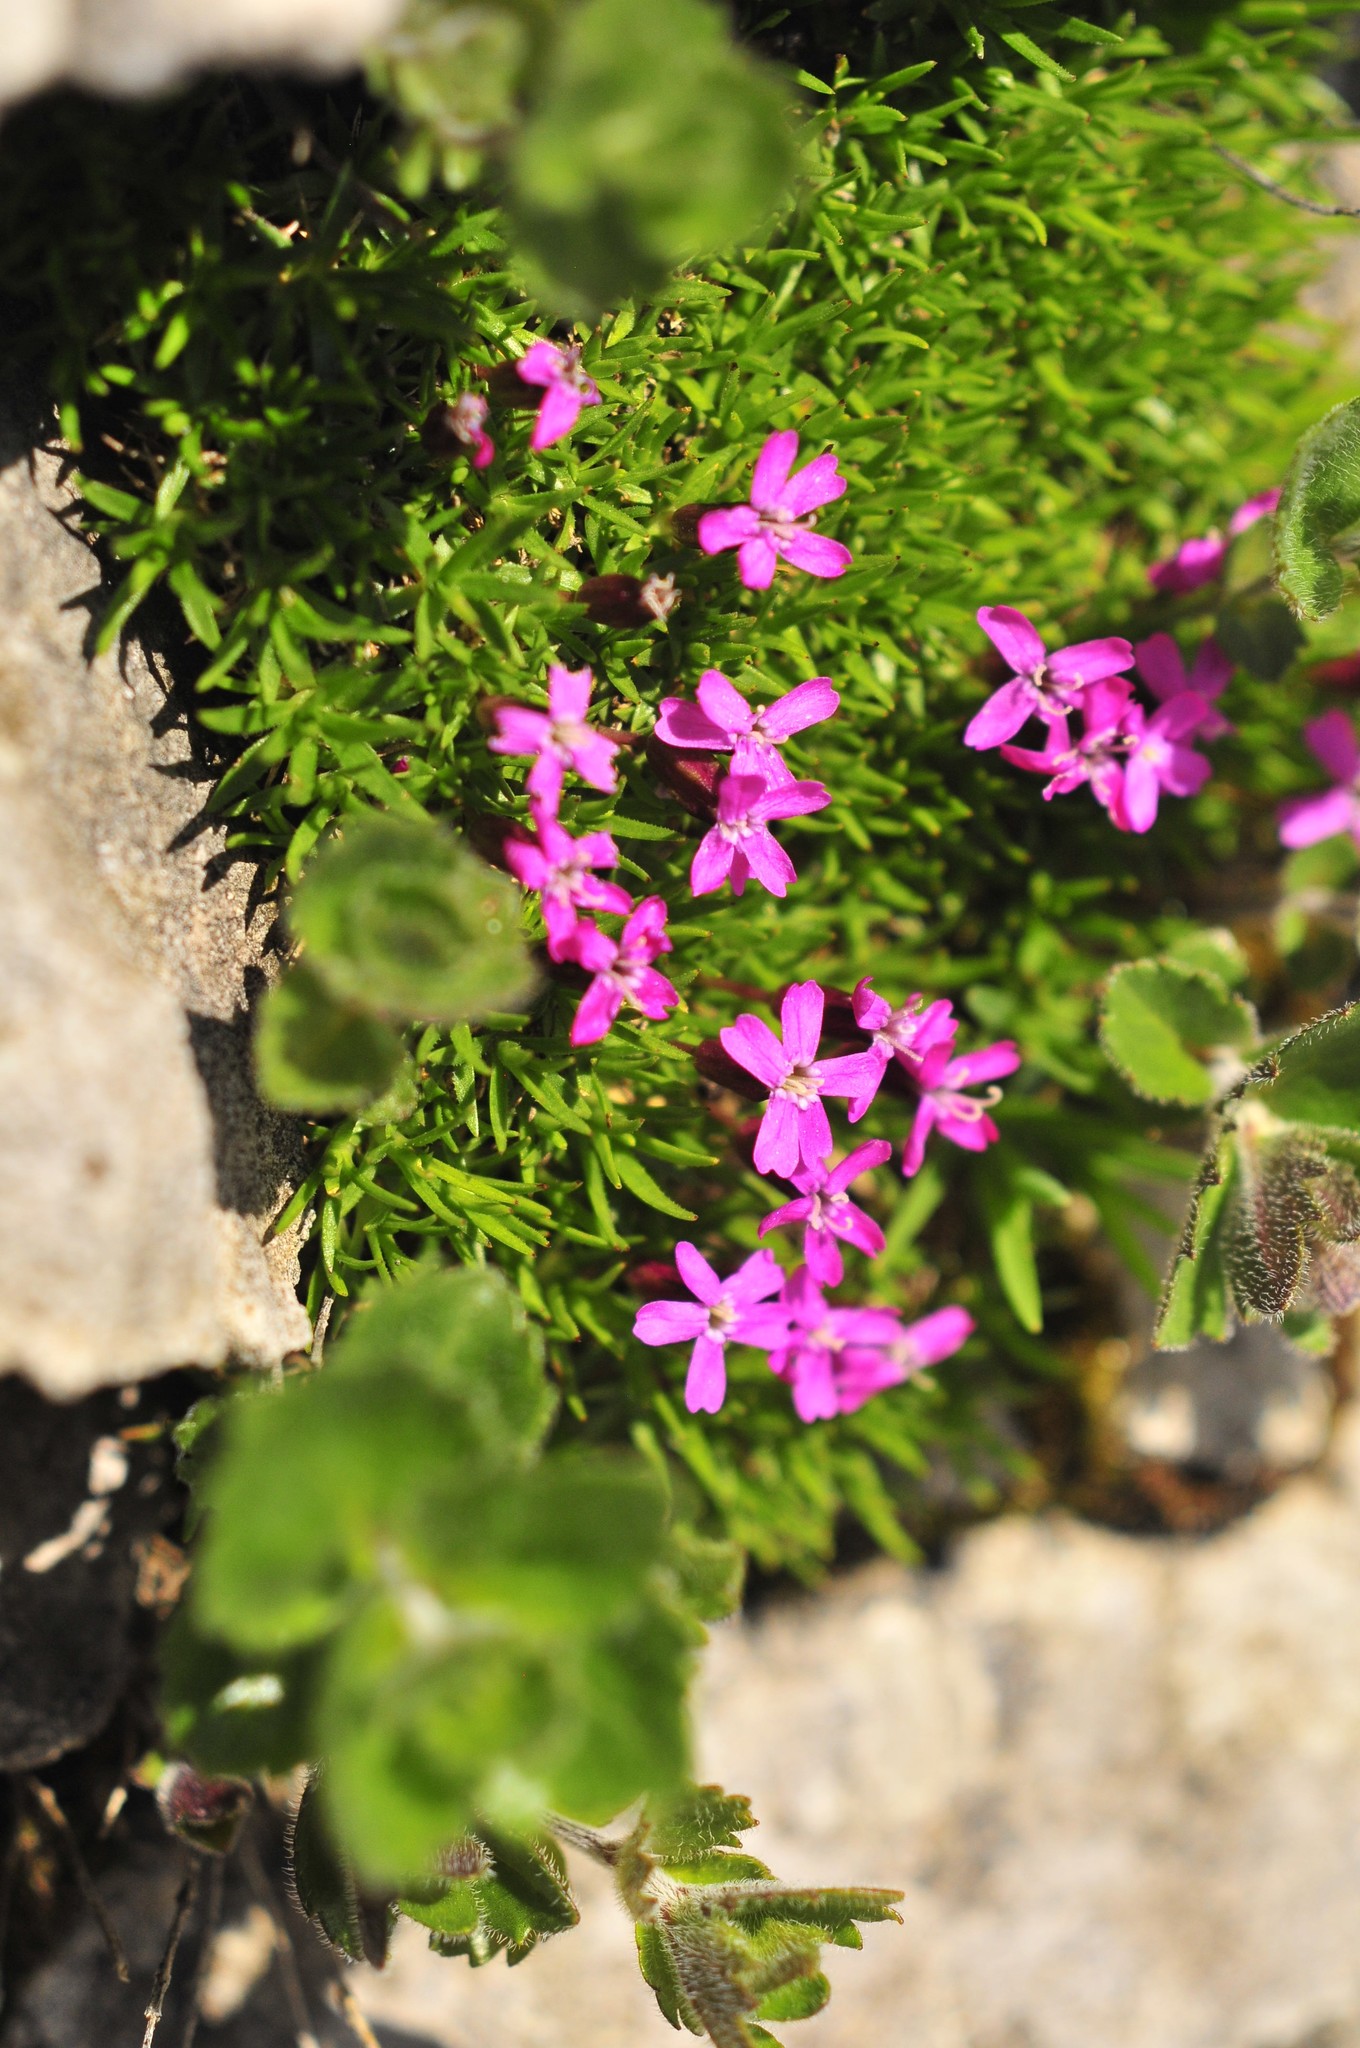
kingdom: Plantae
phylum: Tracheophyta
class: Magnoliopsida
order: Caryophyllales
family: Caryophyllaceae
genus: Silene
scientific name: Silene acaulis
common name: Moss campion
